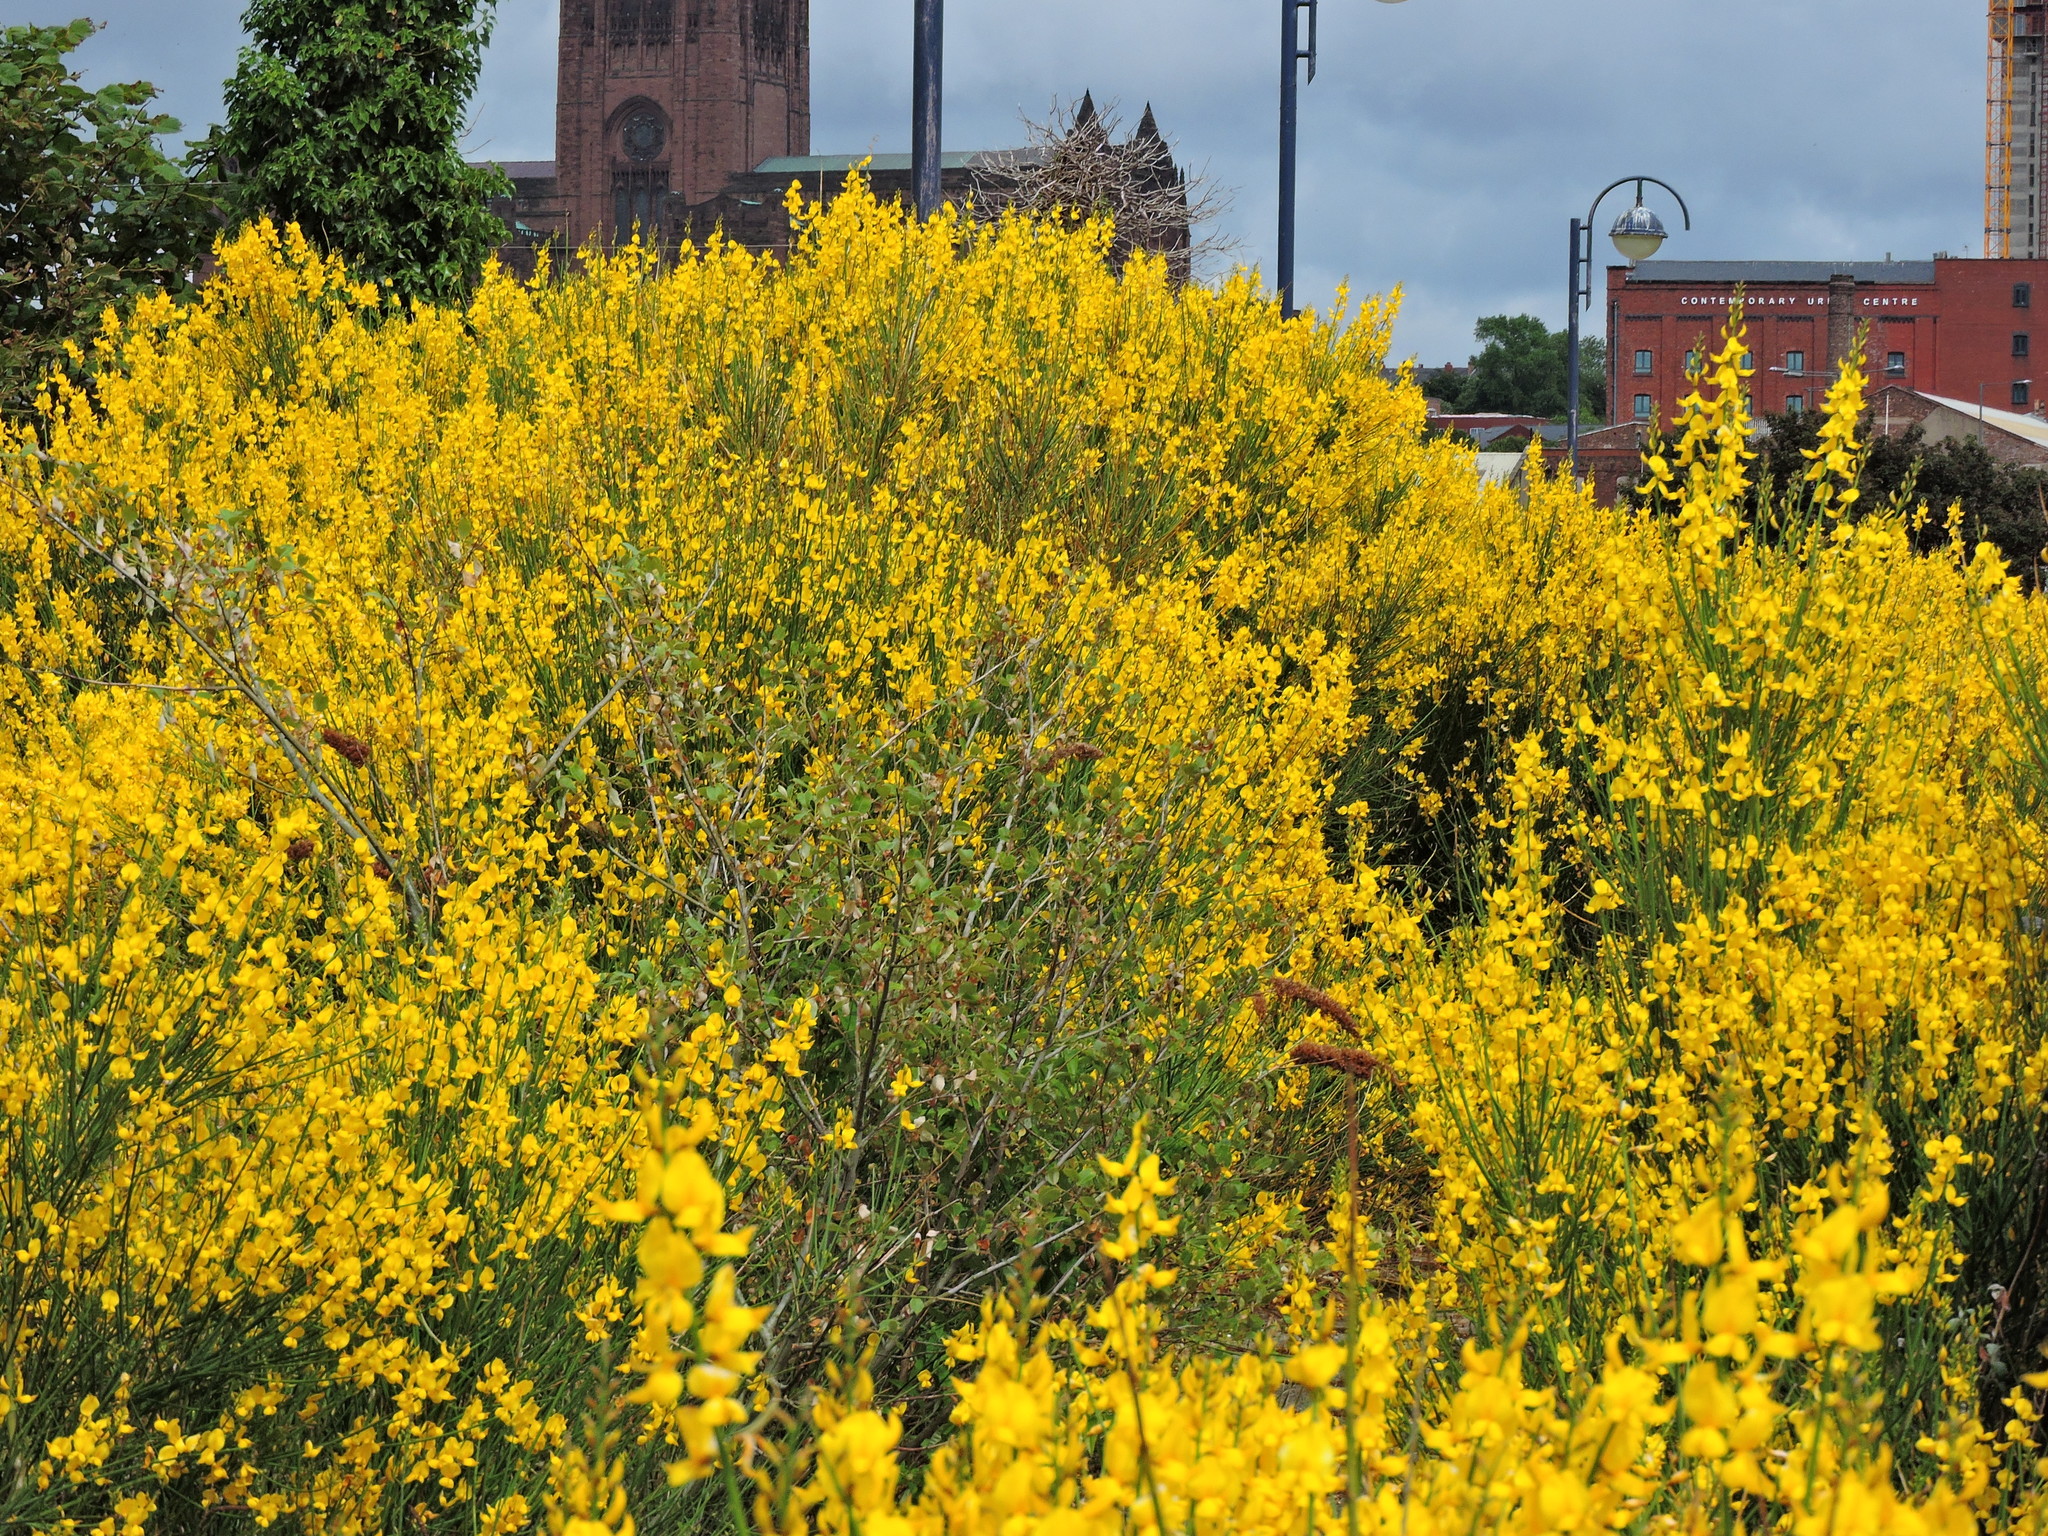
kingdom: Plantae
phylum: Tracheophyta
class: Magnoliopsida
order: Fabales
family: Fabaceae
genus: Spartium
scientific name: Spartium junceum
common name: Spanish broom
